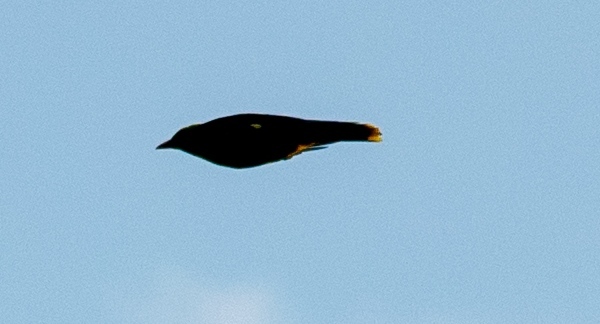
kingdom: Animalia
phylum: Chordata
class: Aves
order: Passeriformes
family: Oriolidae
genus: Oriolus
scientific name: Oriolus oriolus
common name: Eurasian golden oriole
